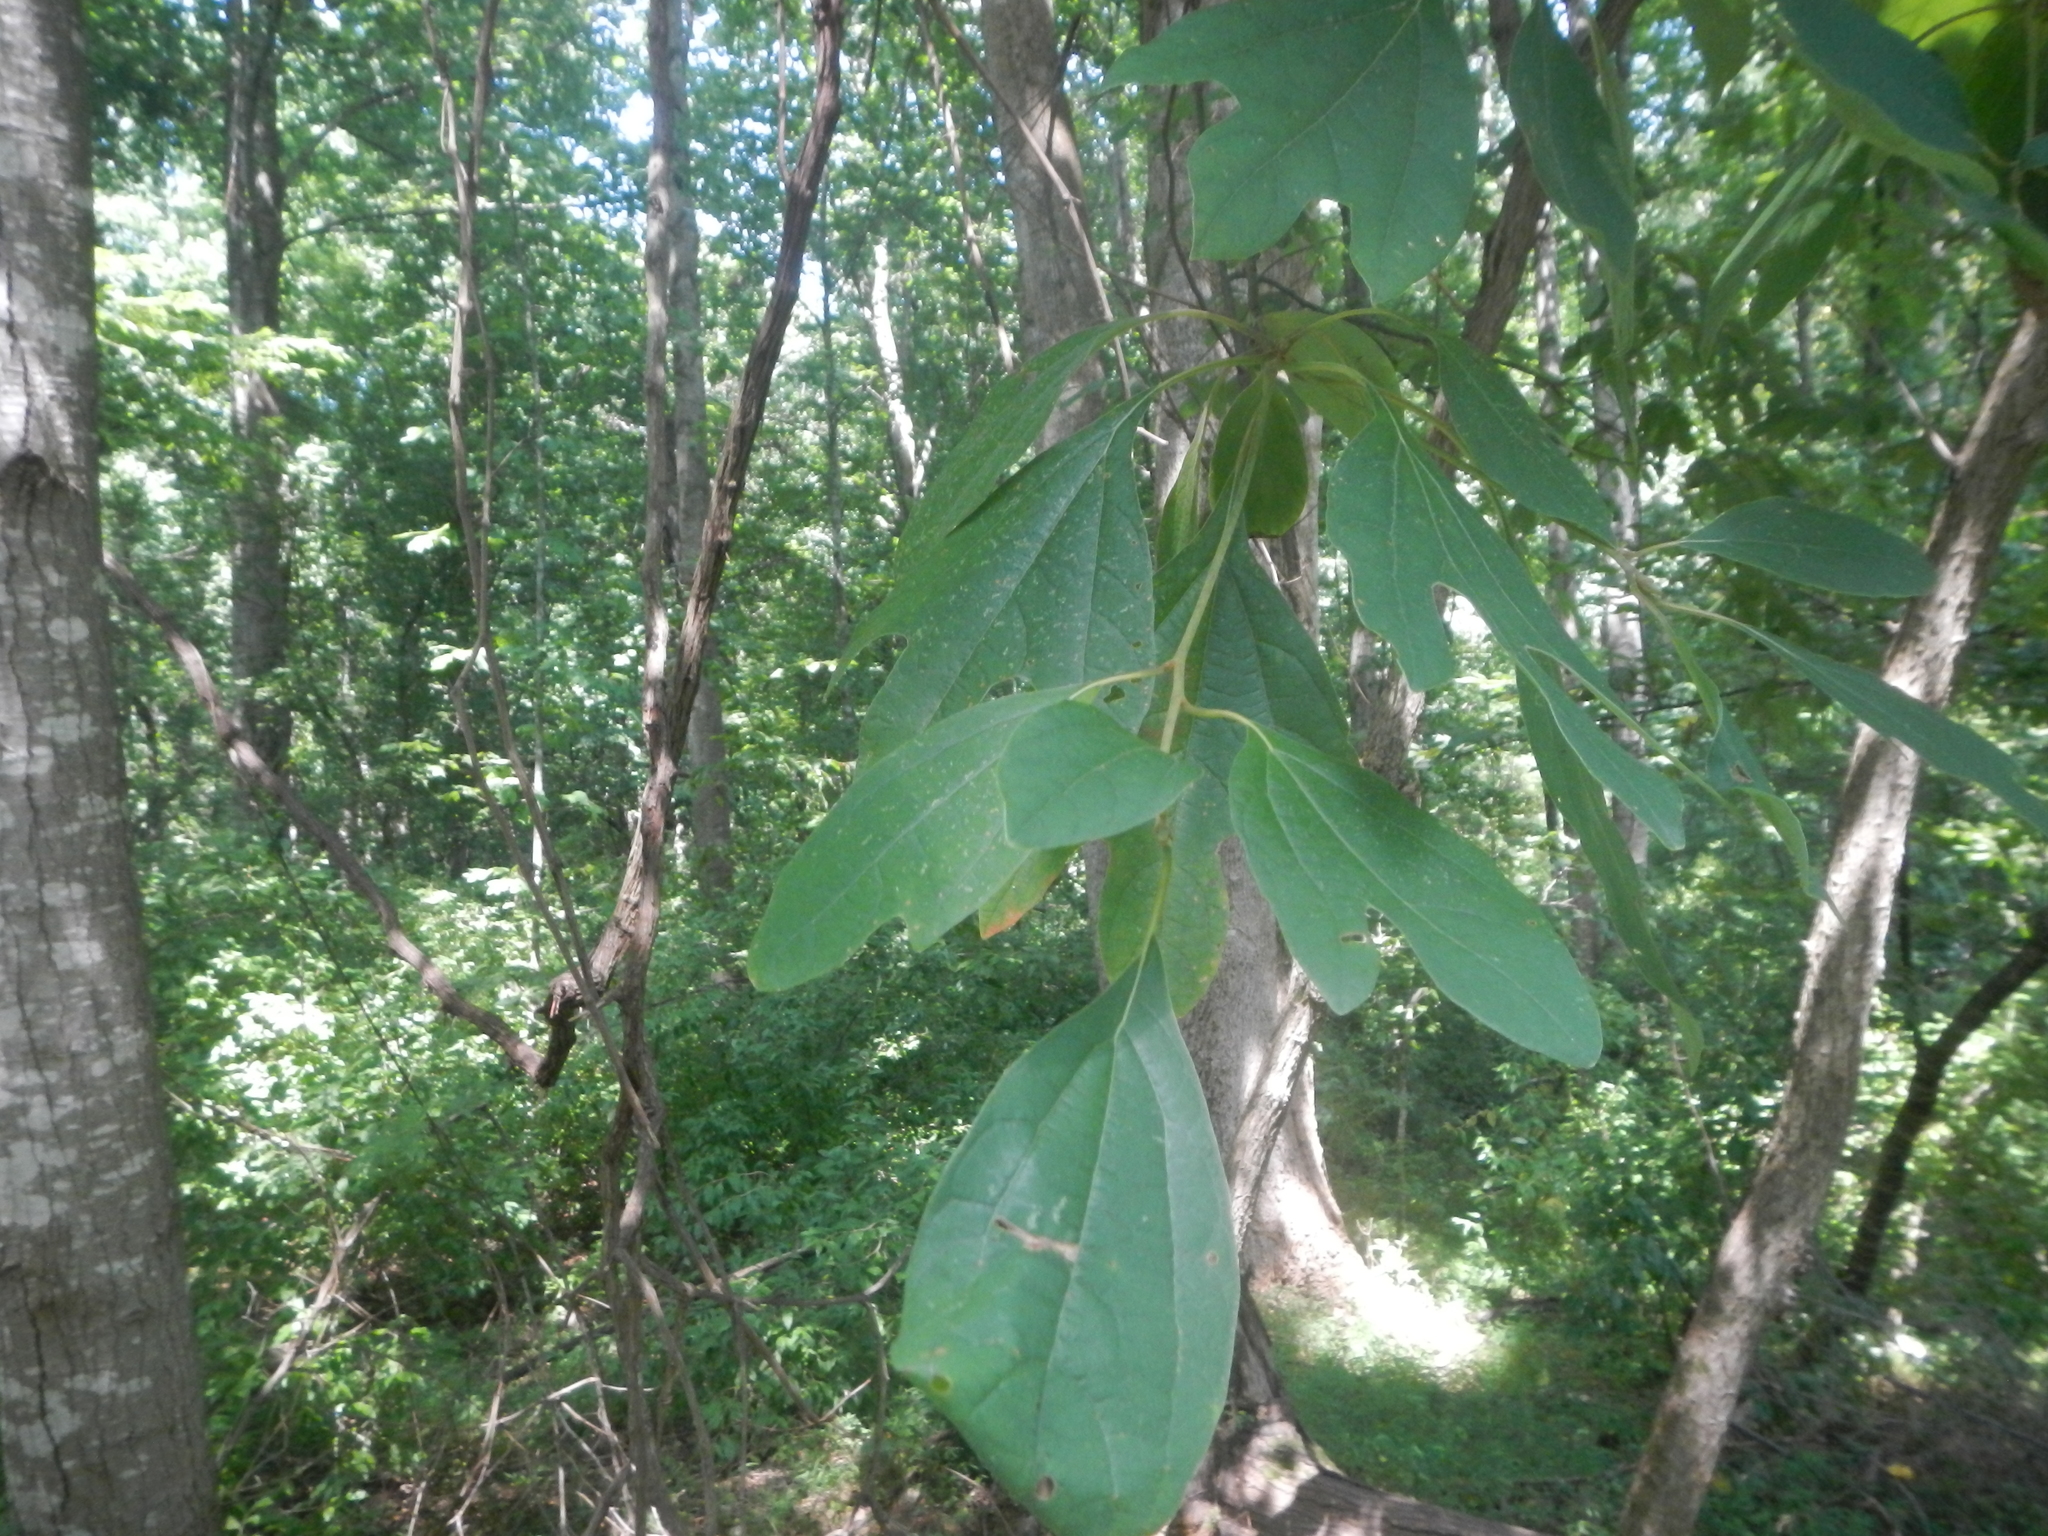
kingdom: Plantae
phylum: Tracheophyta
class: Magnoliopsida
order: Laurales
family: Lauraceae
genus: Sassafras
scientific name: Sassafras albidum
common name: Sassafras
